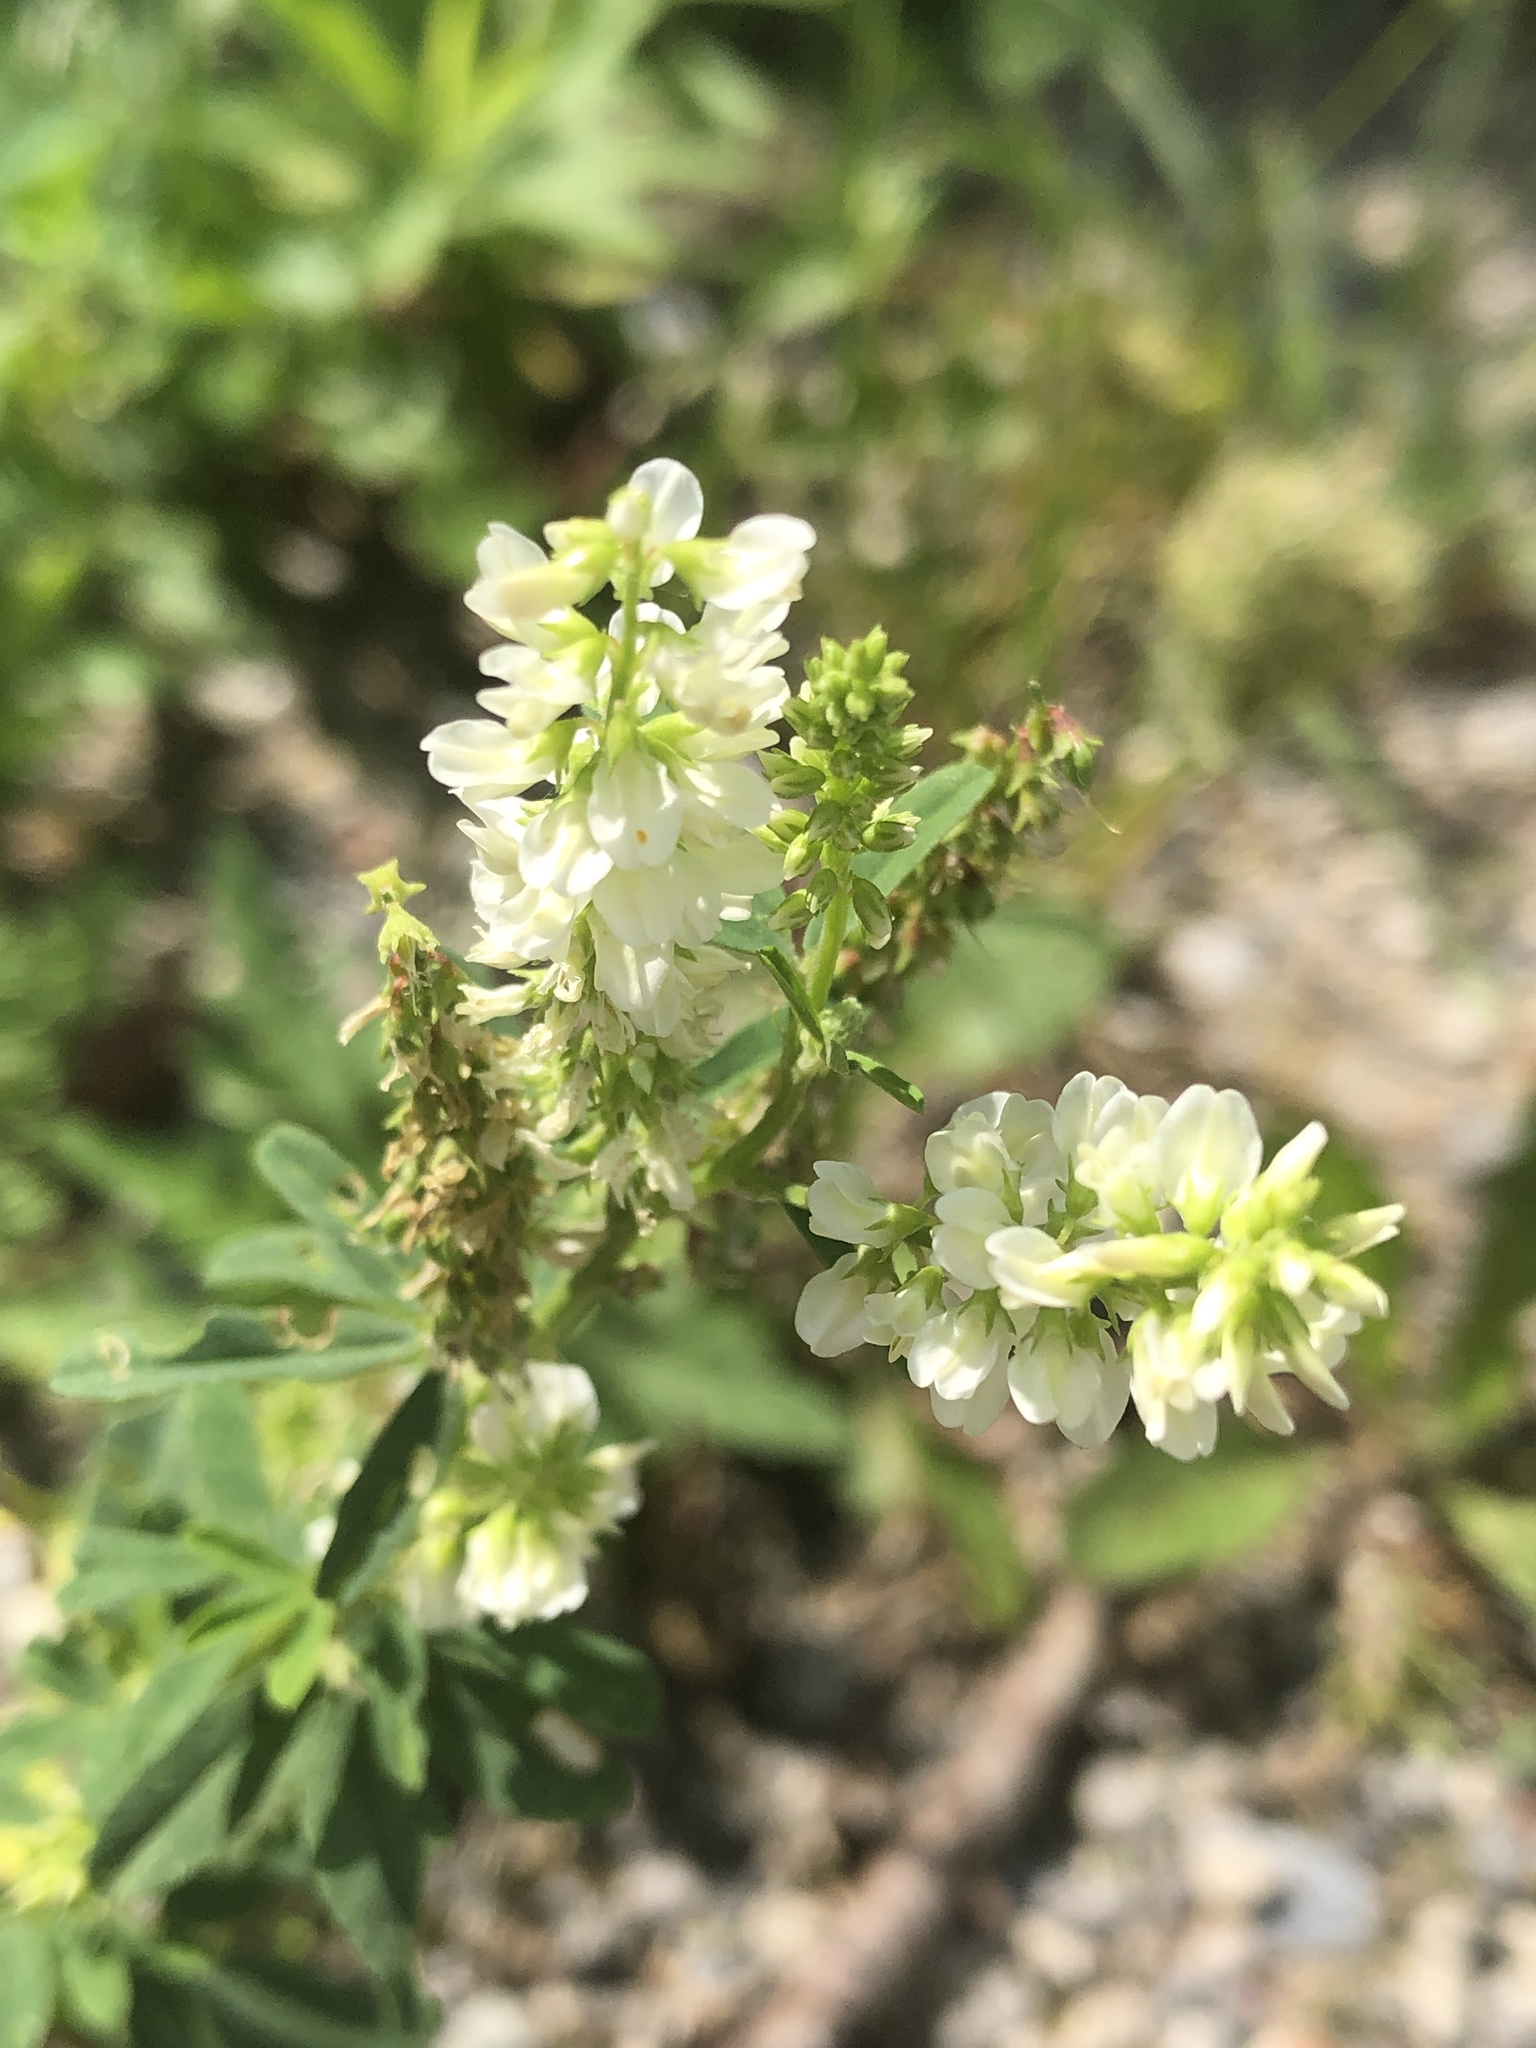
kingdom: Plantae
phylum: Tracheophyta
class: Magnoliopsida
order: Fabales
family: Fabaceae
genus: Melilotus
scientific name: Melilotus albus
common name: White melilot
